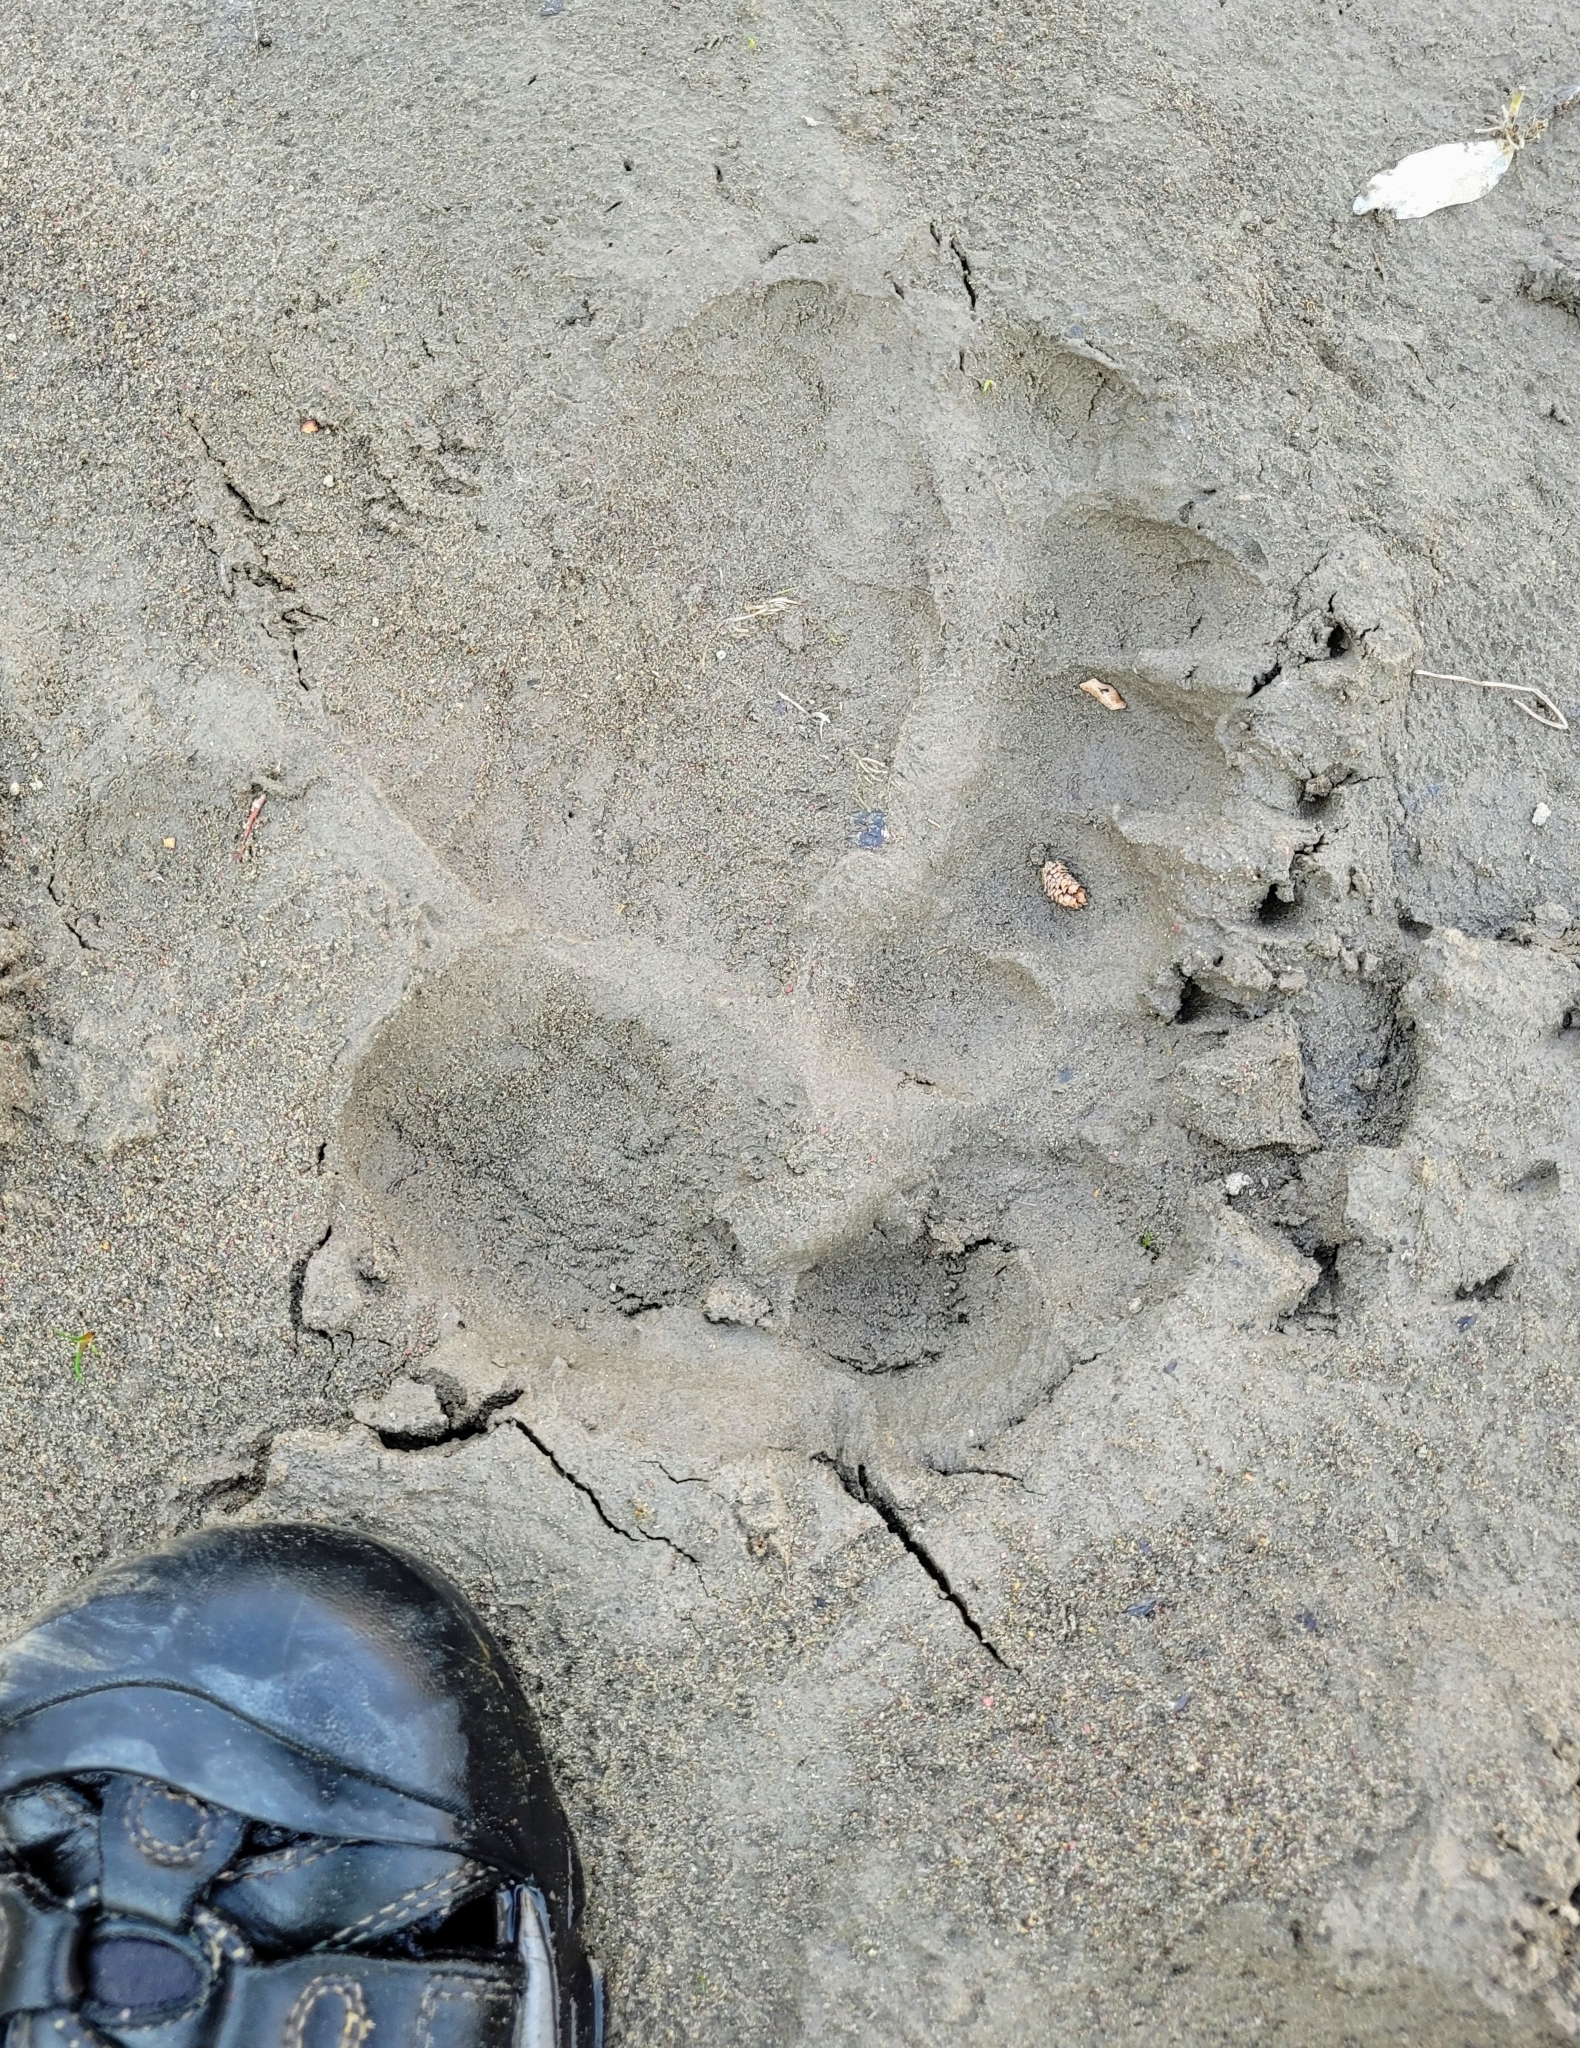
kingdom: Animalia
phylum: Chordata
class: Mammalia
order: Carnivora
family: Ursidae
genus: Ursus
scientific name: Ursus arctos
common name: Brown bear
